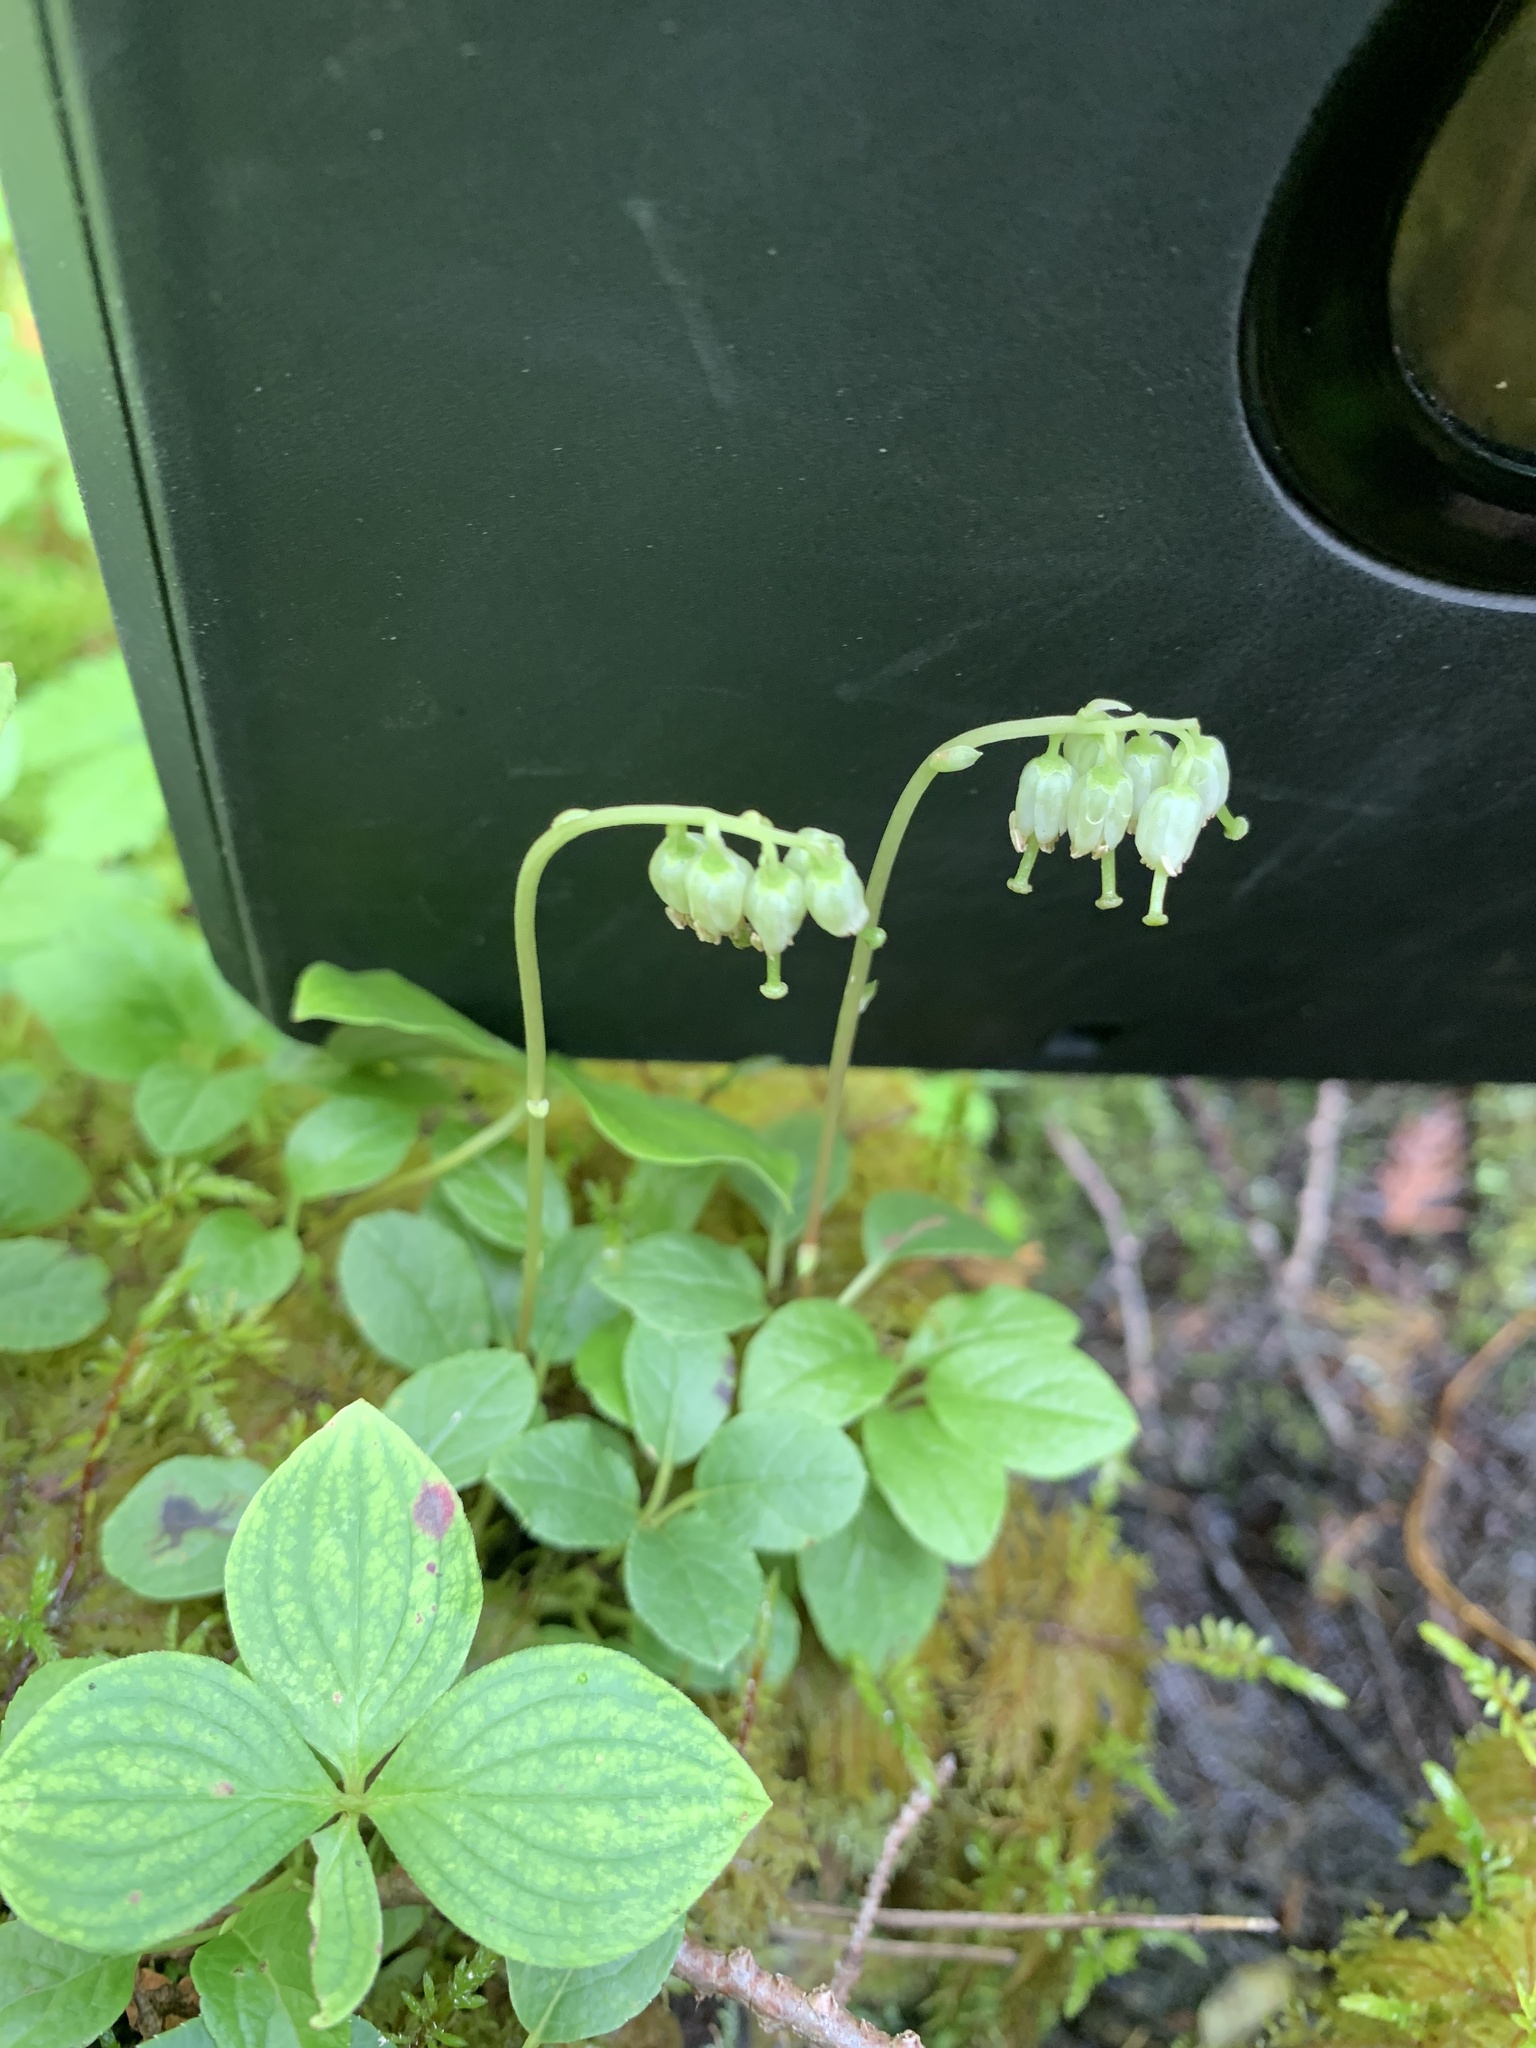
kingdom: Plantae
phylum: Tracheophyta
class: Magnoliopsida
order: Ericales
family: Ericaceae
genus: Orthilia
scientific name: Orthilia secunda
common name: One-sided orthilia
